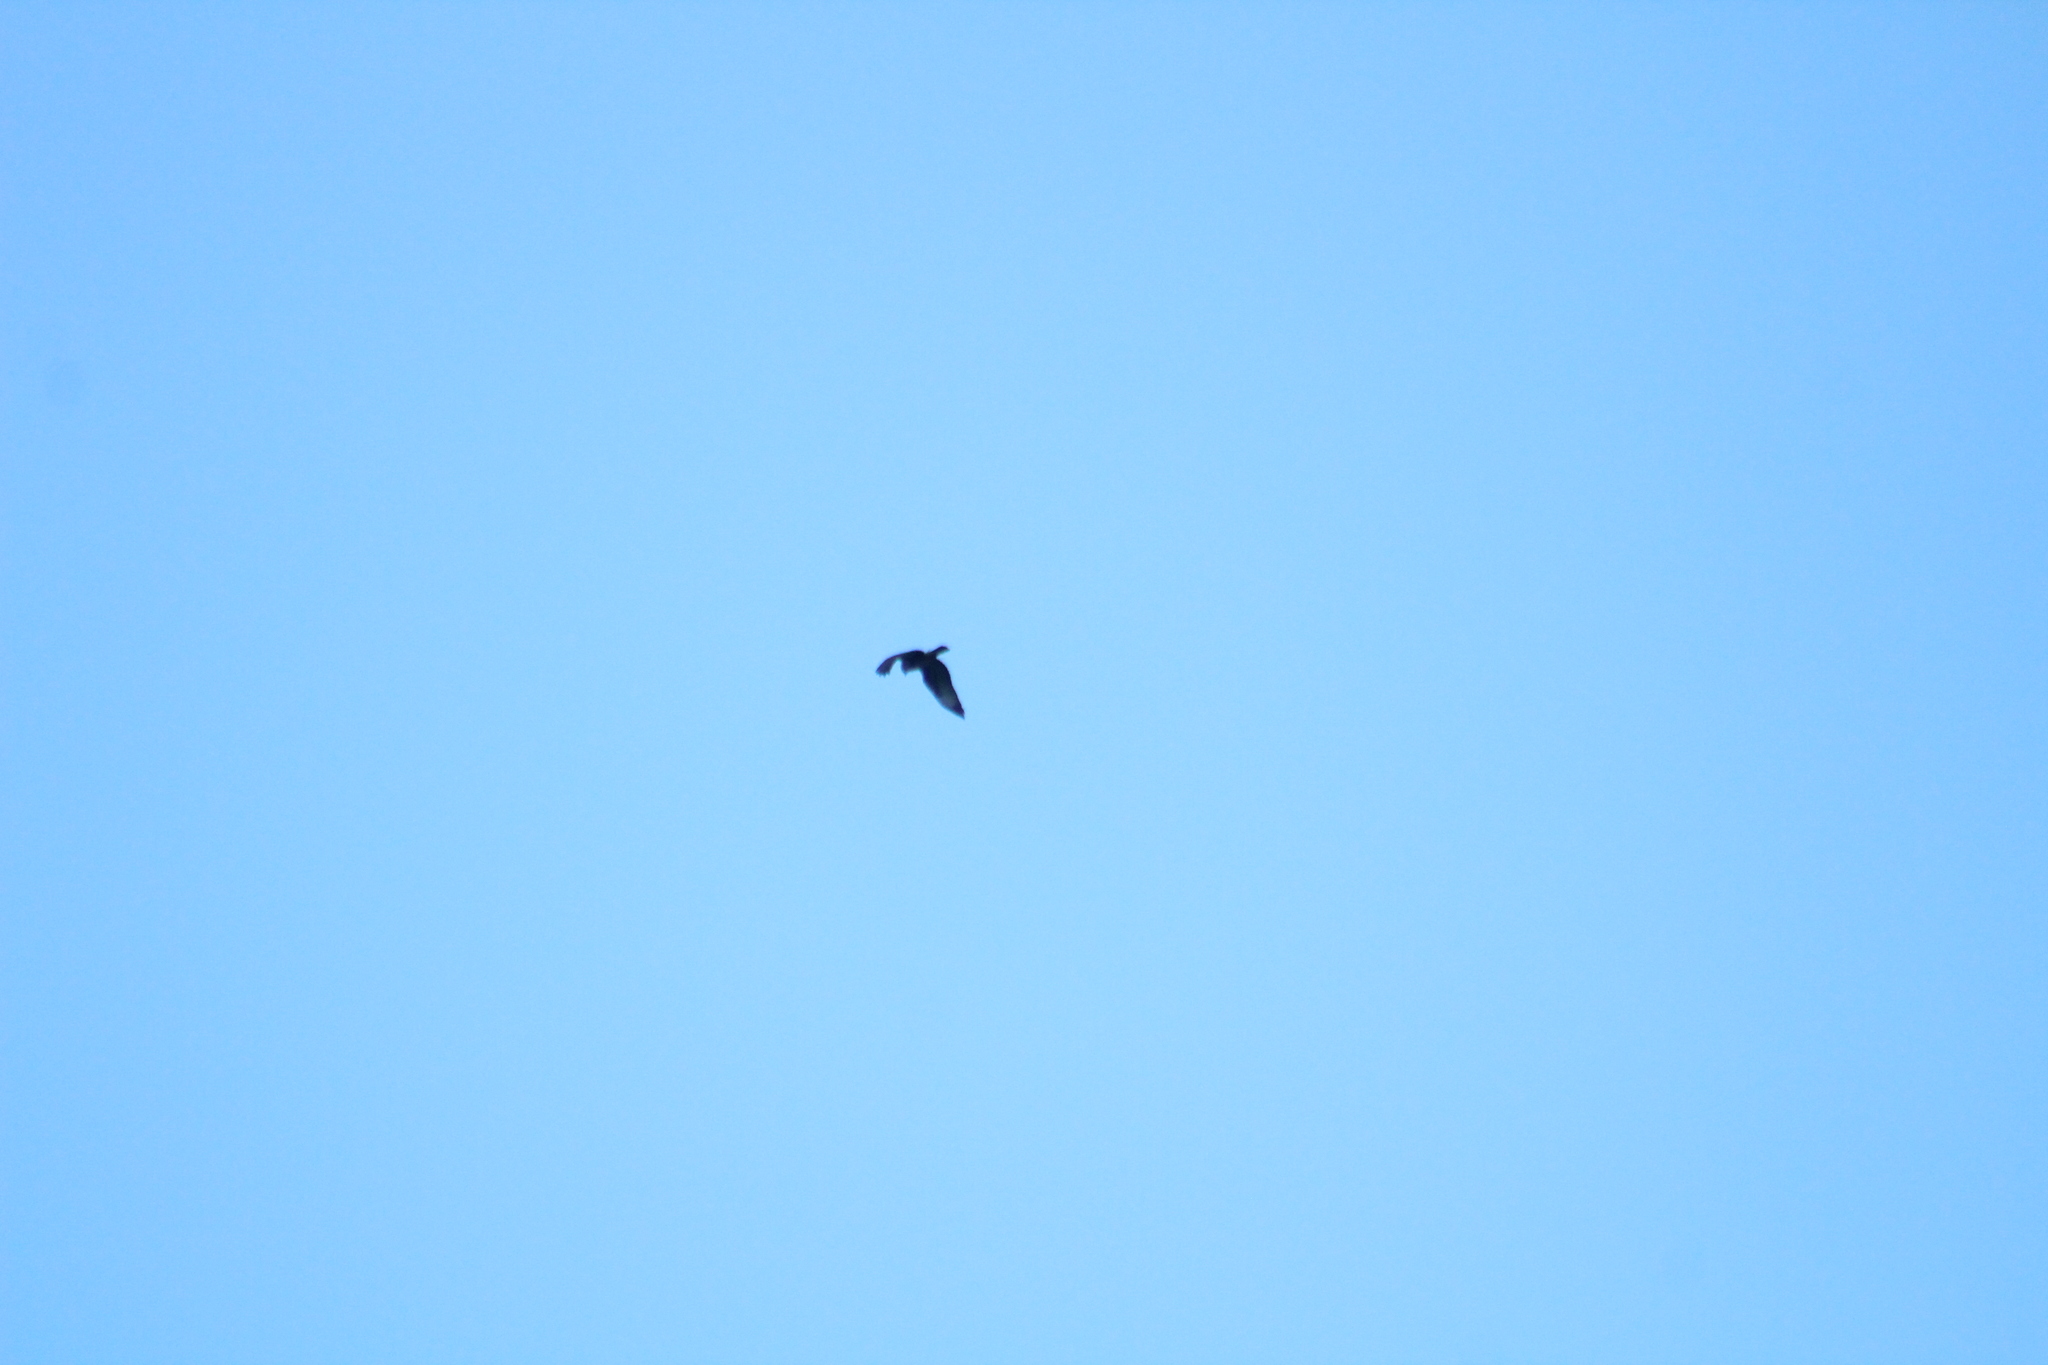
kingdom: Animalia
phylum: Chordata
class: Aves
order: Accipitriformes
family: Accipitridae
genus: Buteo
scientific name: Buteo buteo
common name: Common buzzard
